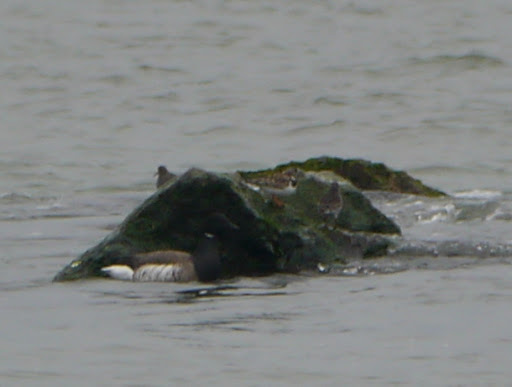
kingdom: Animalia
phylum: Chordata
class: Aves
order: Charadriiformes
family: Scolopacidae
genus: Arenaria
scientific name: Arenaria interpres
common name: Ruddy turnstone
